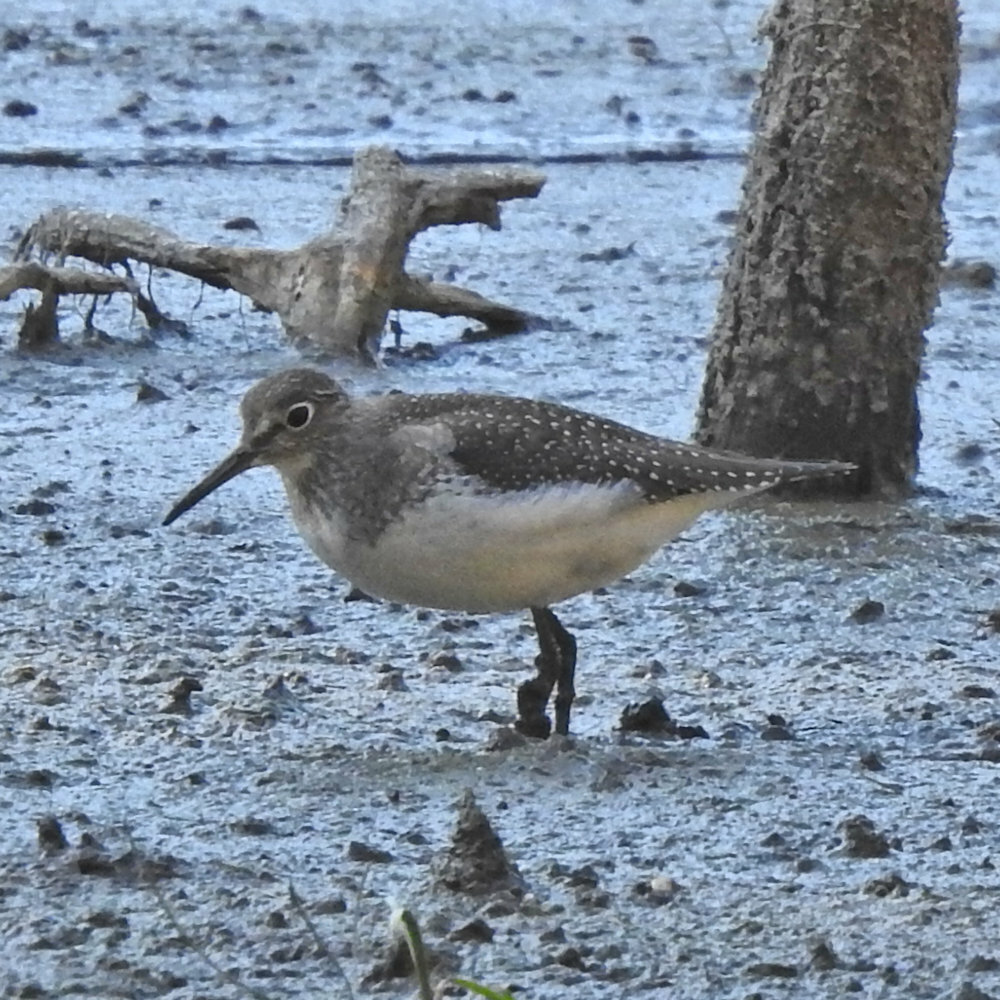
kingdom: Animalia
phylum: Chordata
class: Aves
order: Charadriiformes
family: Scolopacidae
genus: Tringa
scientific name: Tringa solitaria
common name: Solitary sandpiper
